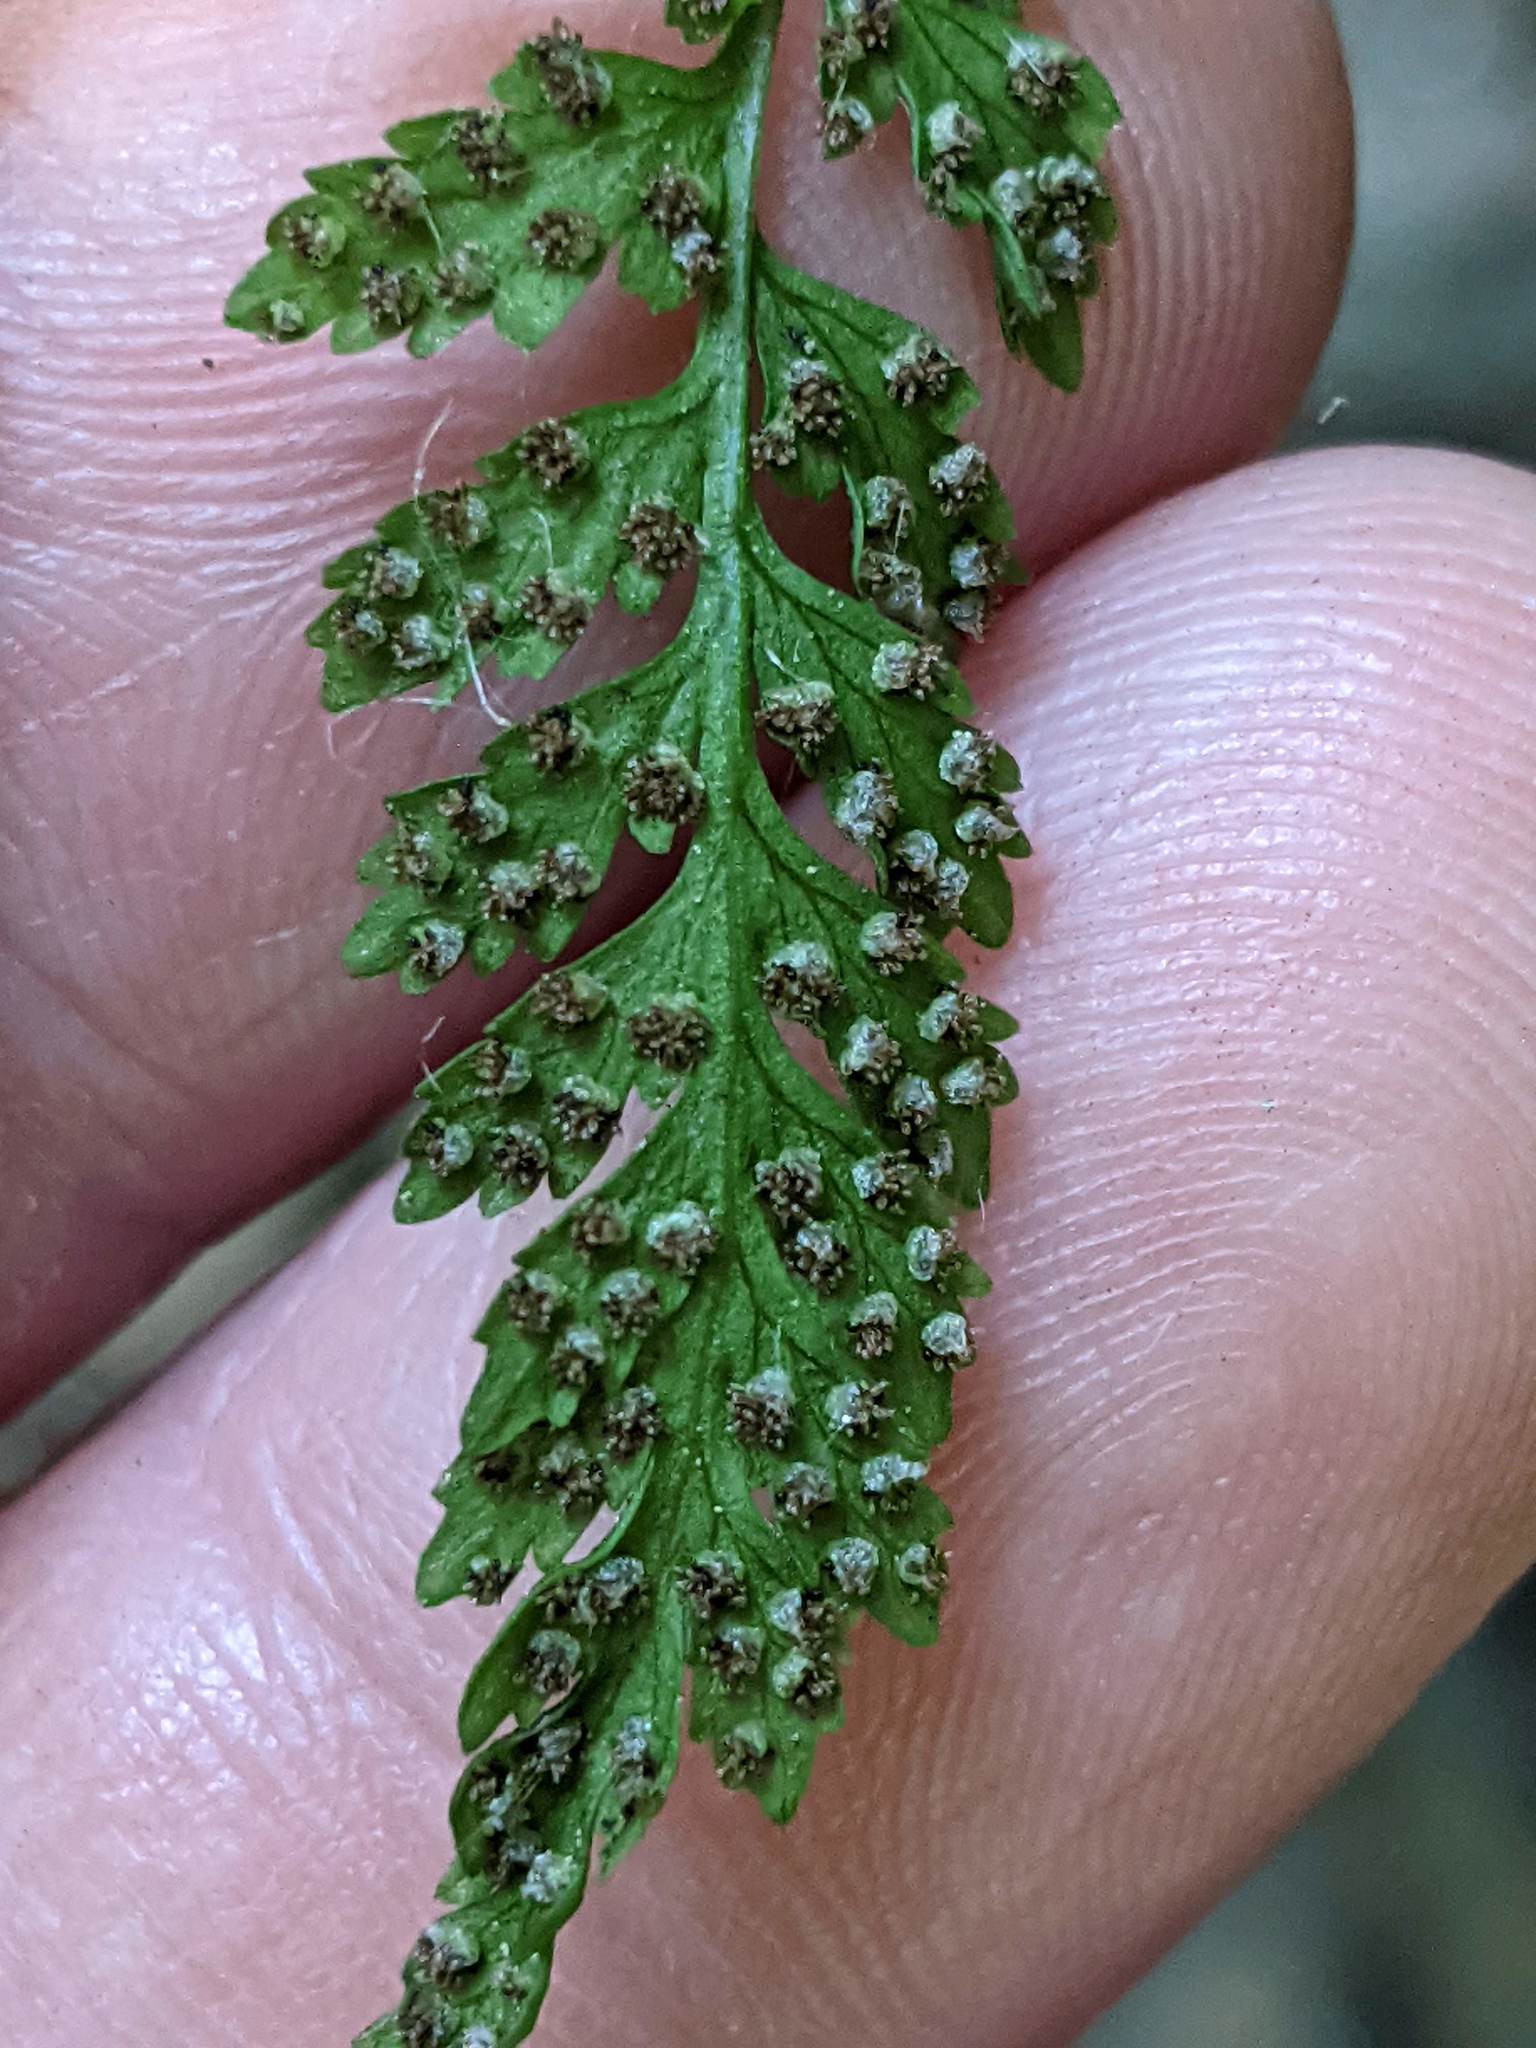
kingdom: Plantae
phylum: Tracheophyta
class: Polypodiopsida
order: Polypodiales
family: Cystopteridaceae
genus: Cystopteris
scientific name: Cystopteris fragilis
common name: Brittle bladder fern
